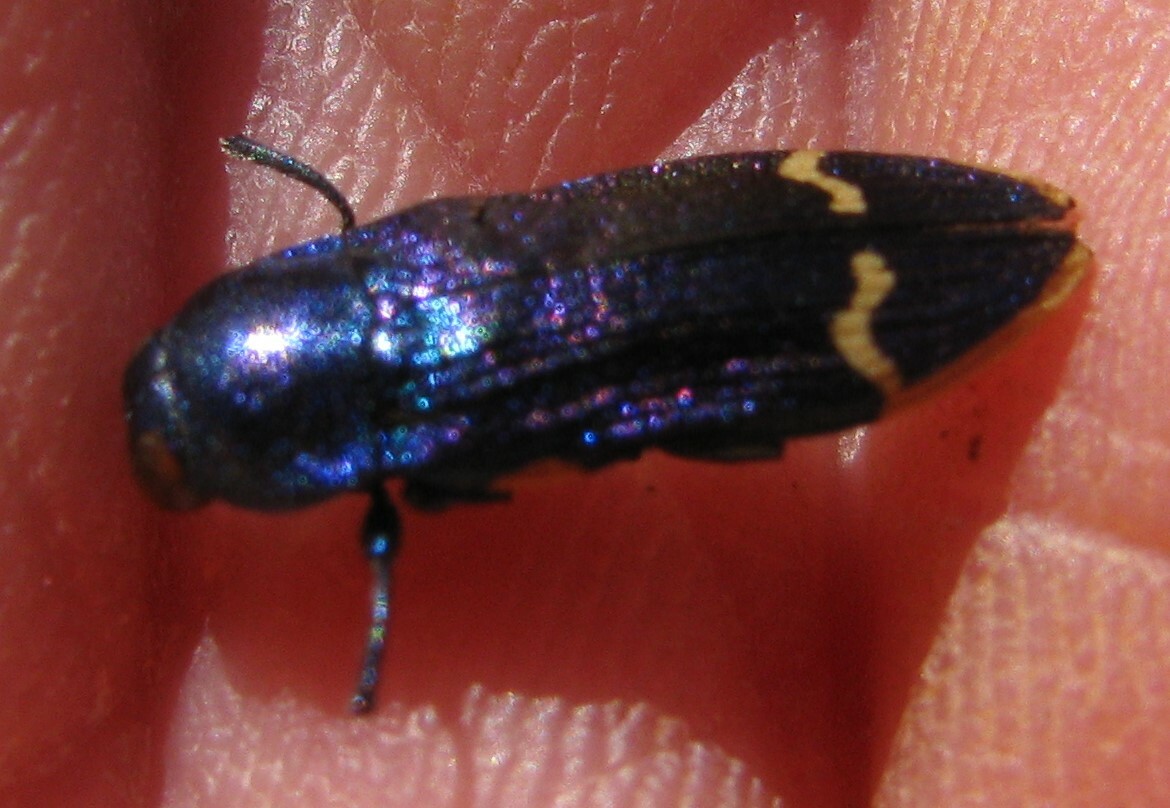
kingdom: Animalia
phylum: Arthropoda
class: Insecta
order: Coleoptera
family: Buprestidae
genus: Castiarina
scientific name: Castiarina leai
